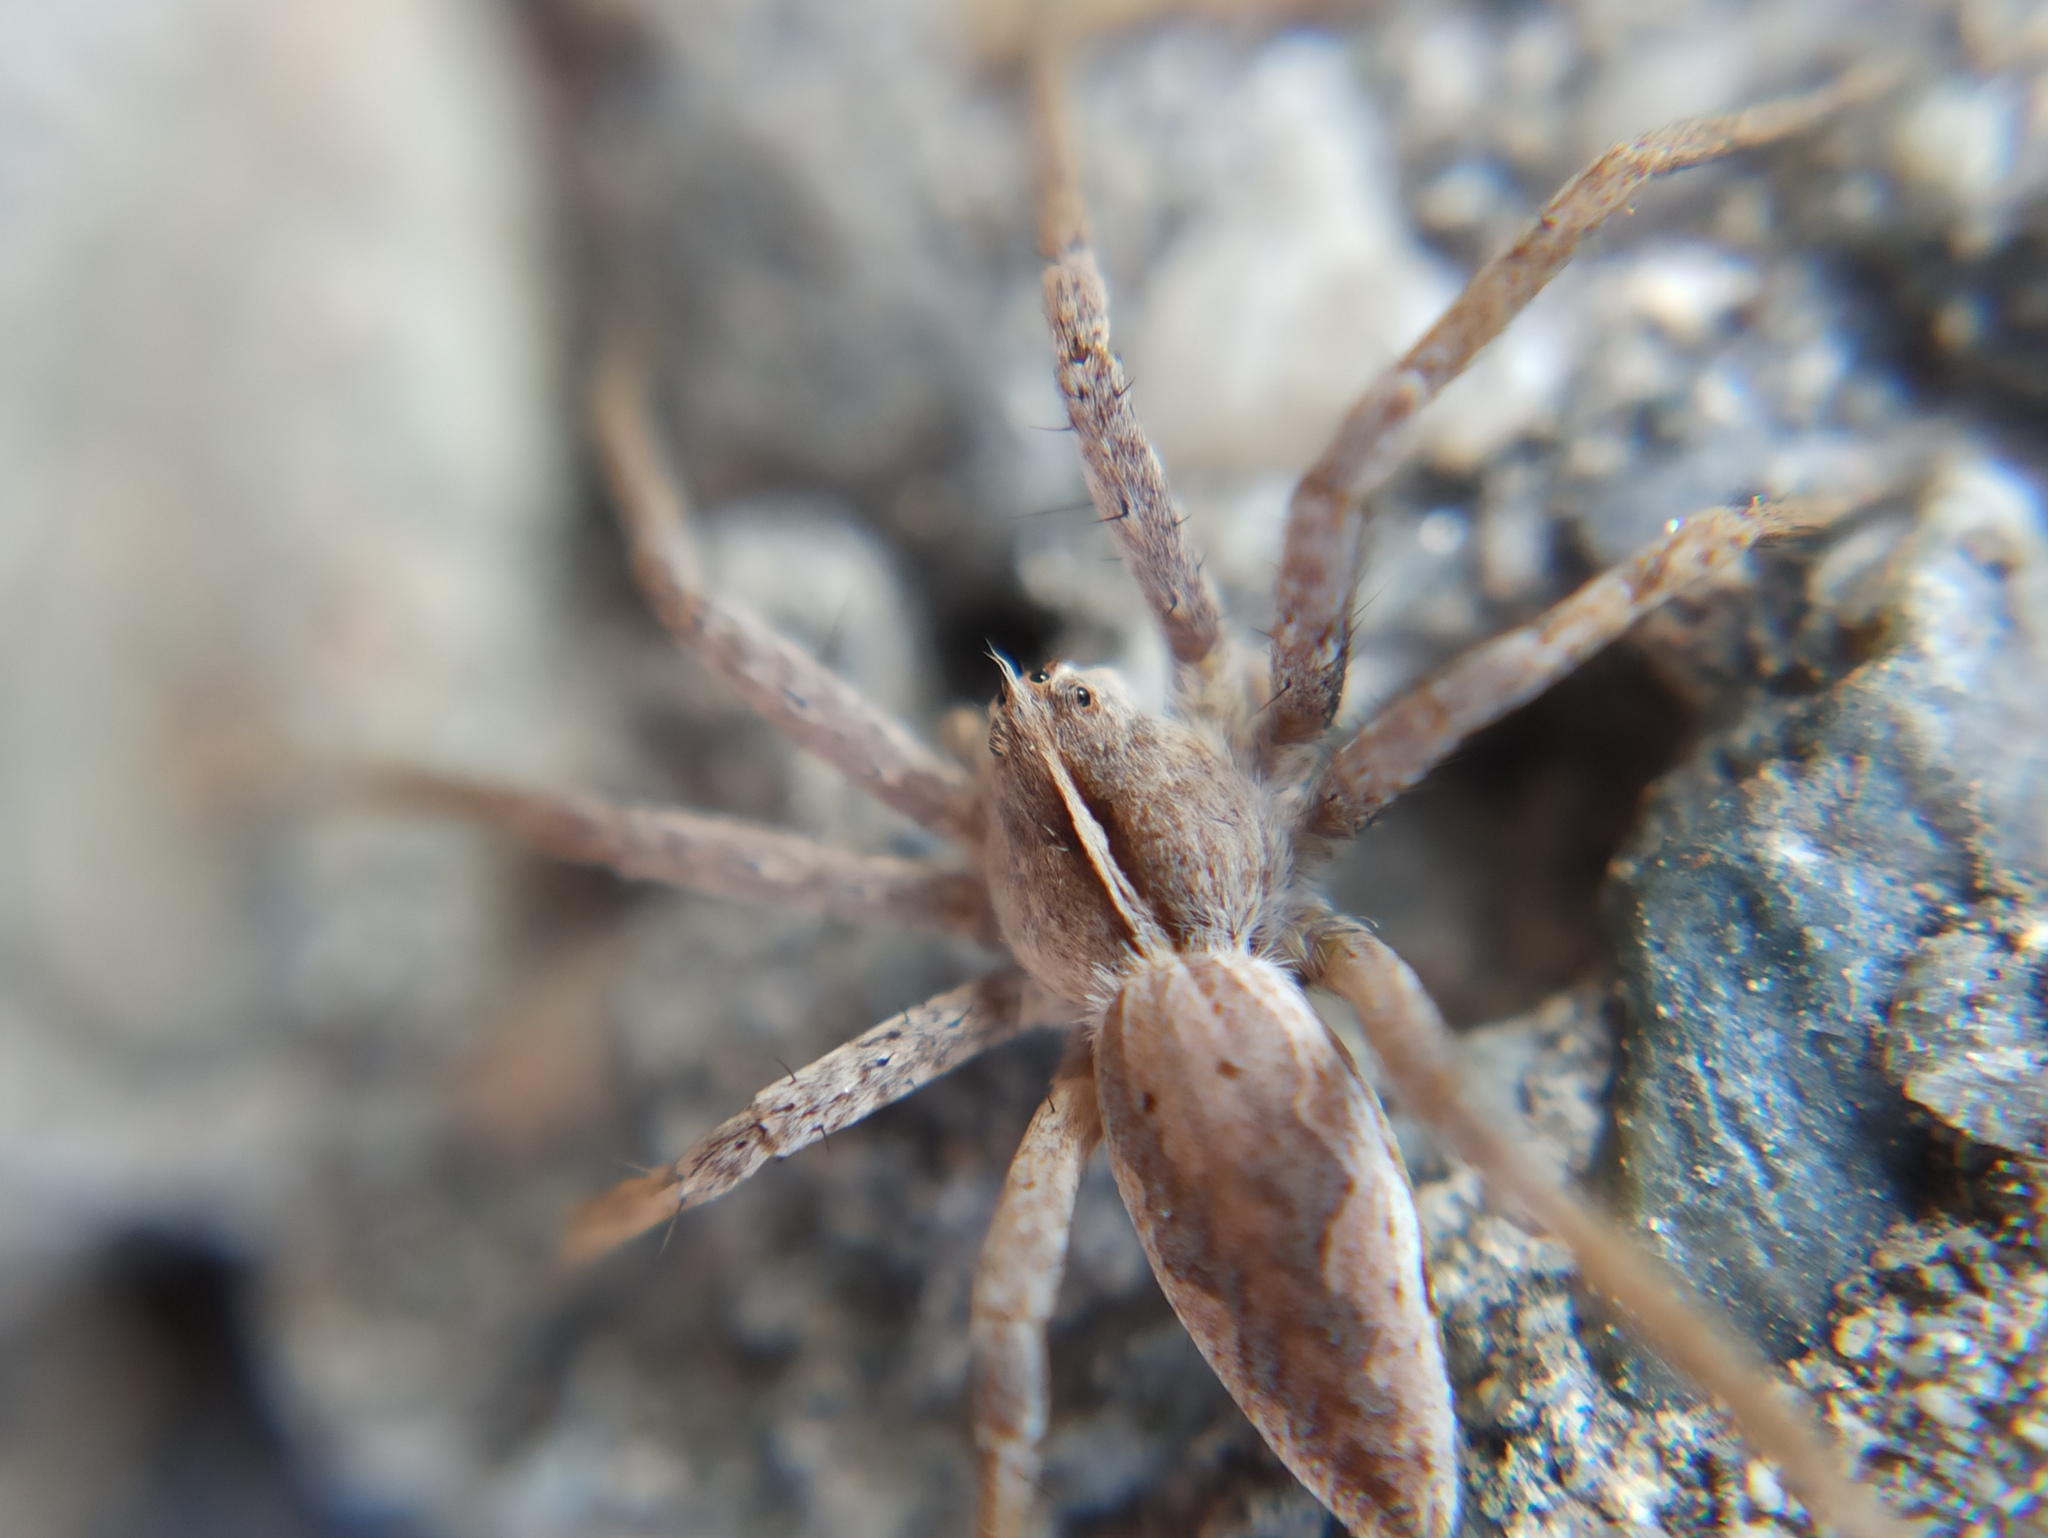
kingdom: Animalia
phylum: Arthropoda
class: Arachnida
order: Araneae
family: Pisauridae
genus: Pisaura
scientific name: Pisaura mirabilis
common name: Tent spider
